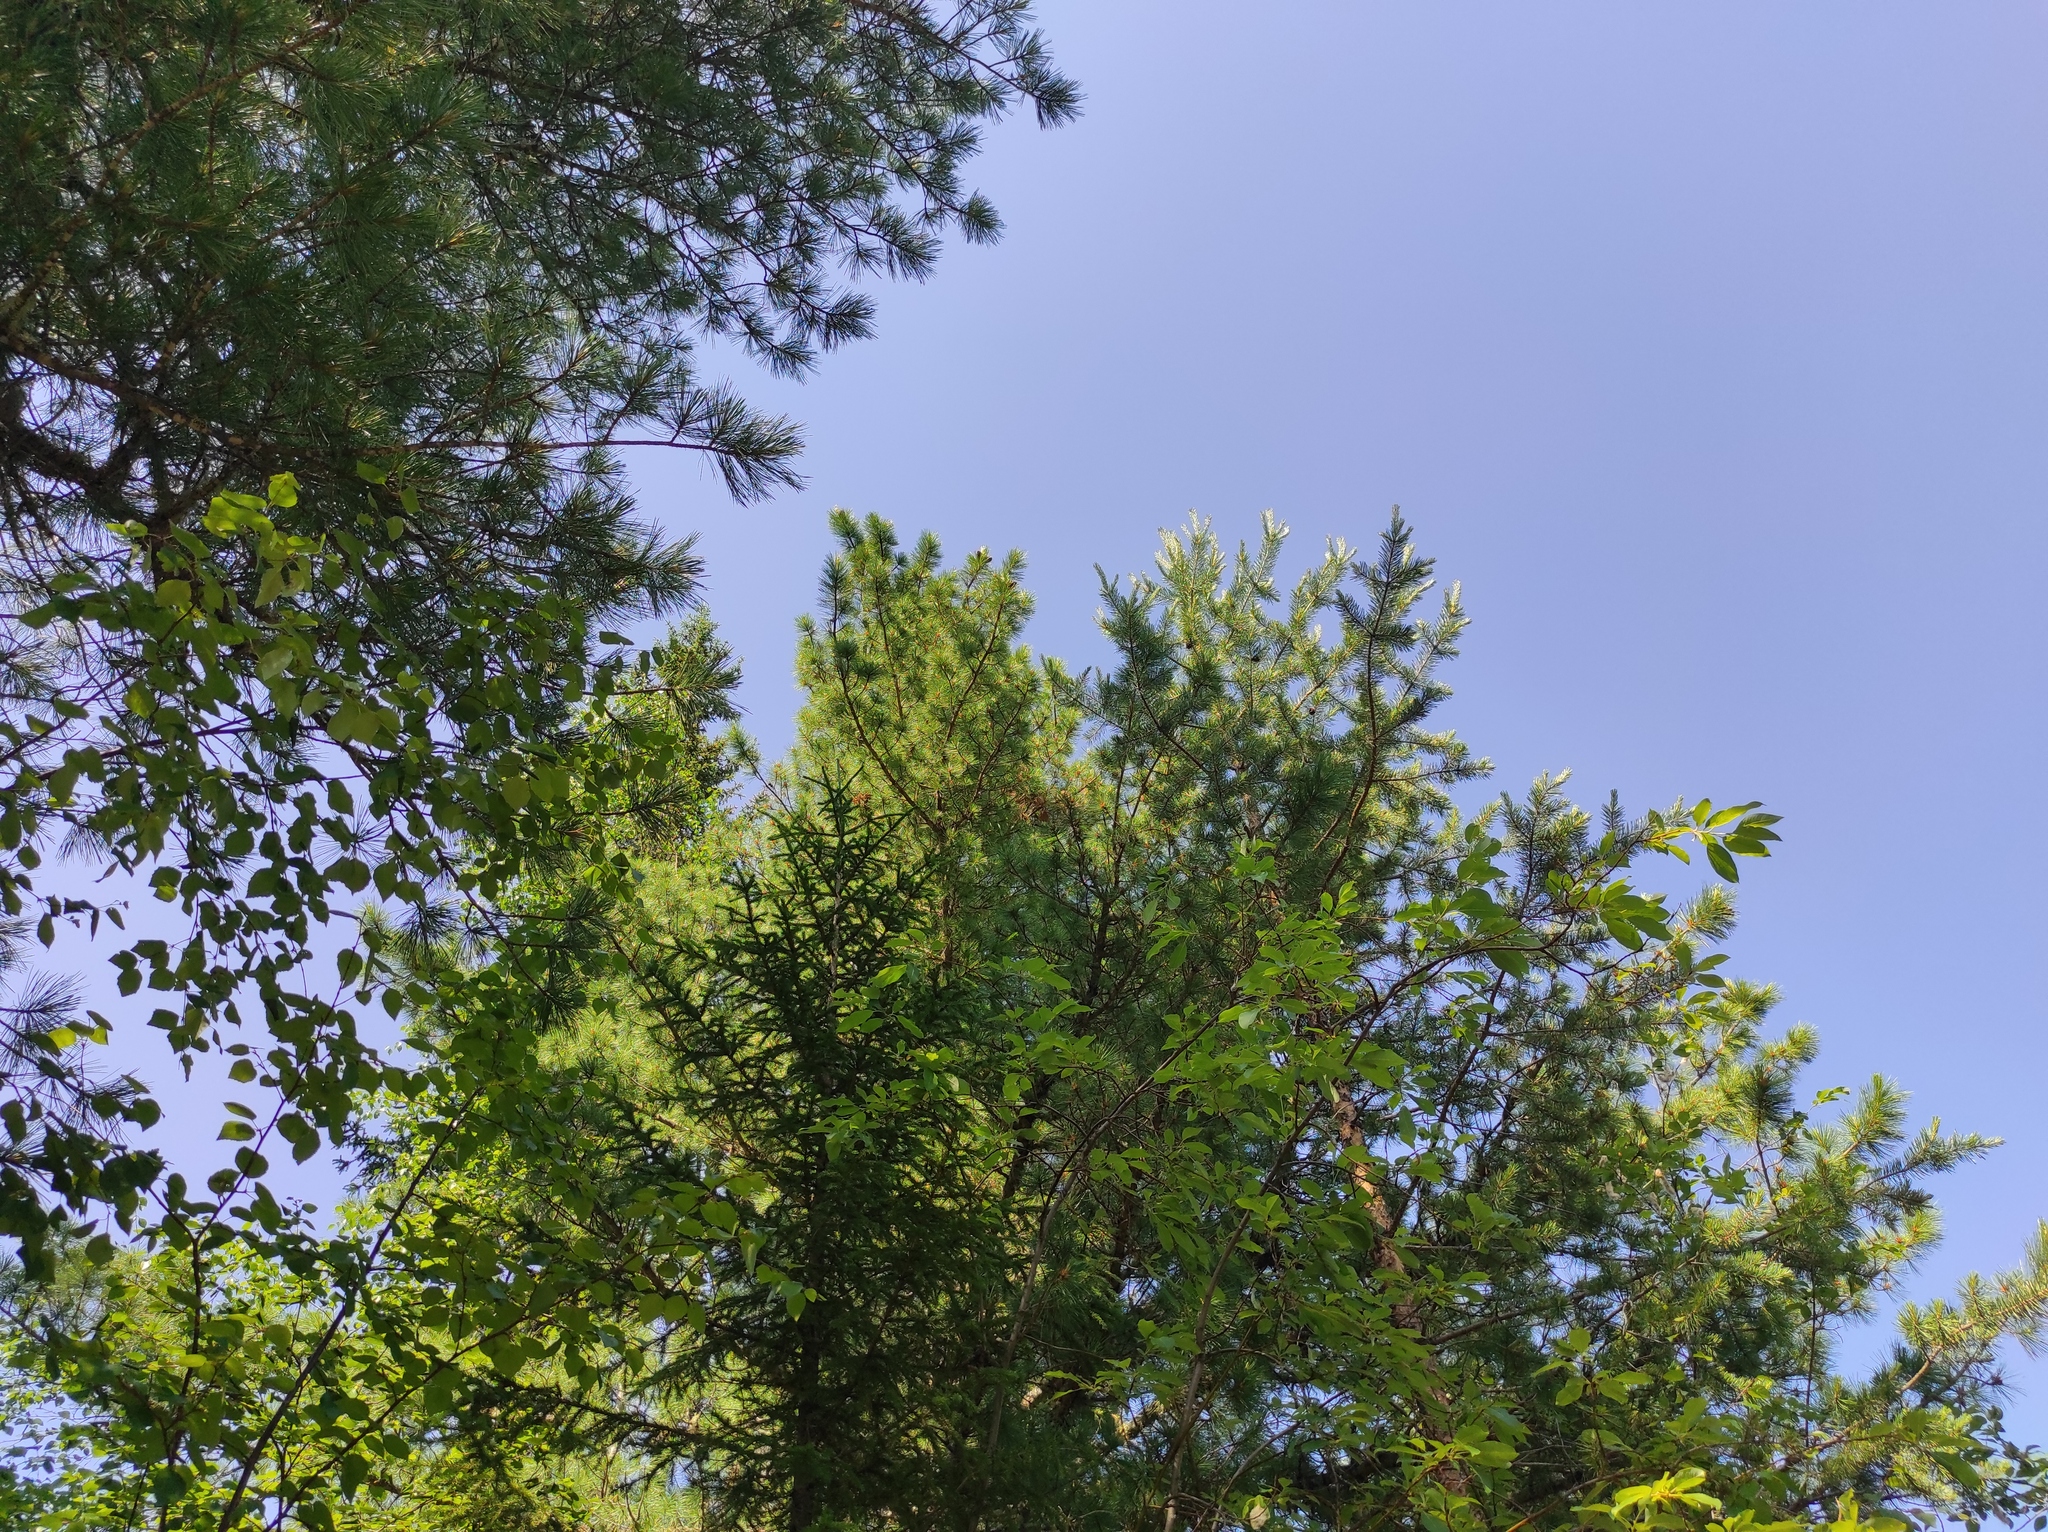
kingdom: Plantae
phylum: Tracheophyta
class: Pinopsida
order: Pinales
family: Pinaceae
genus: Picea
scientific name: Picea obovata
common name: Siberian spruce
